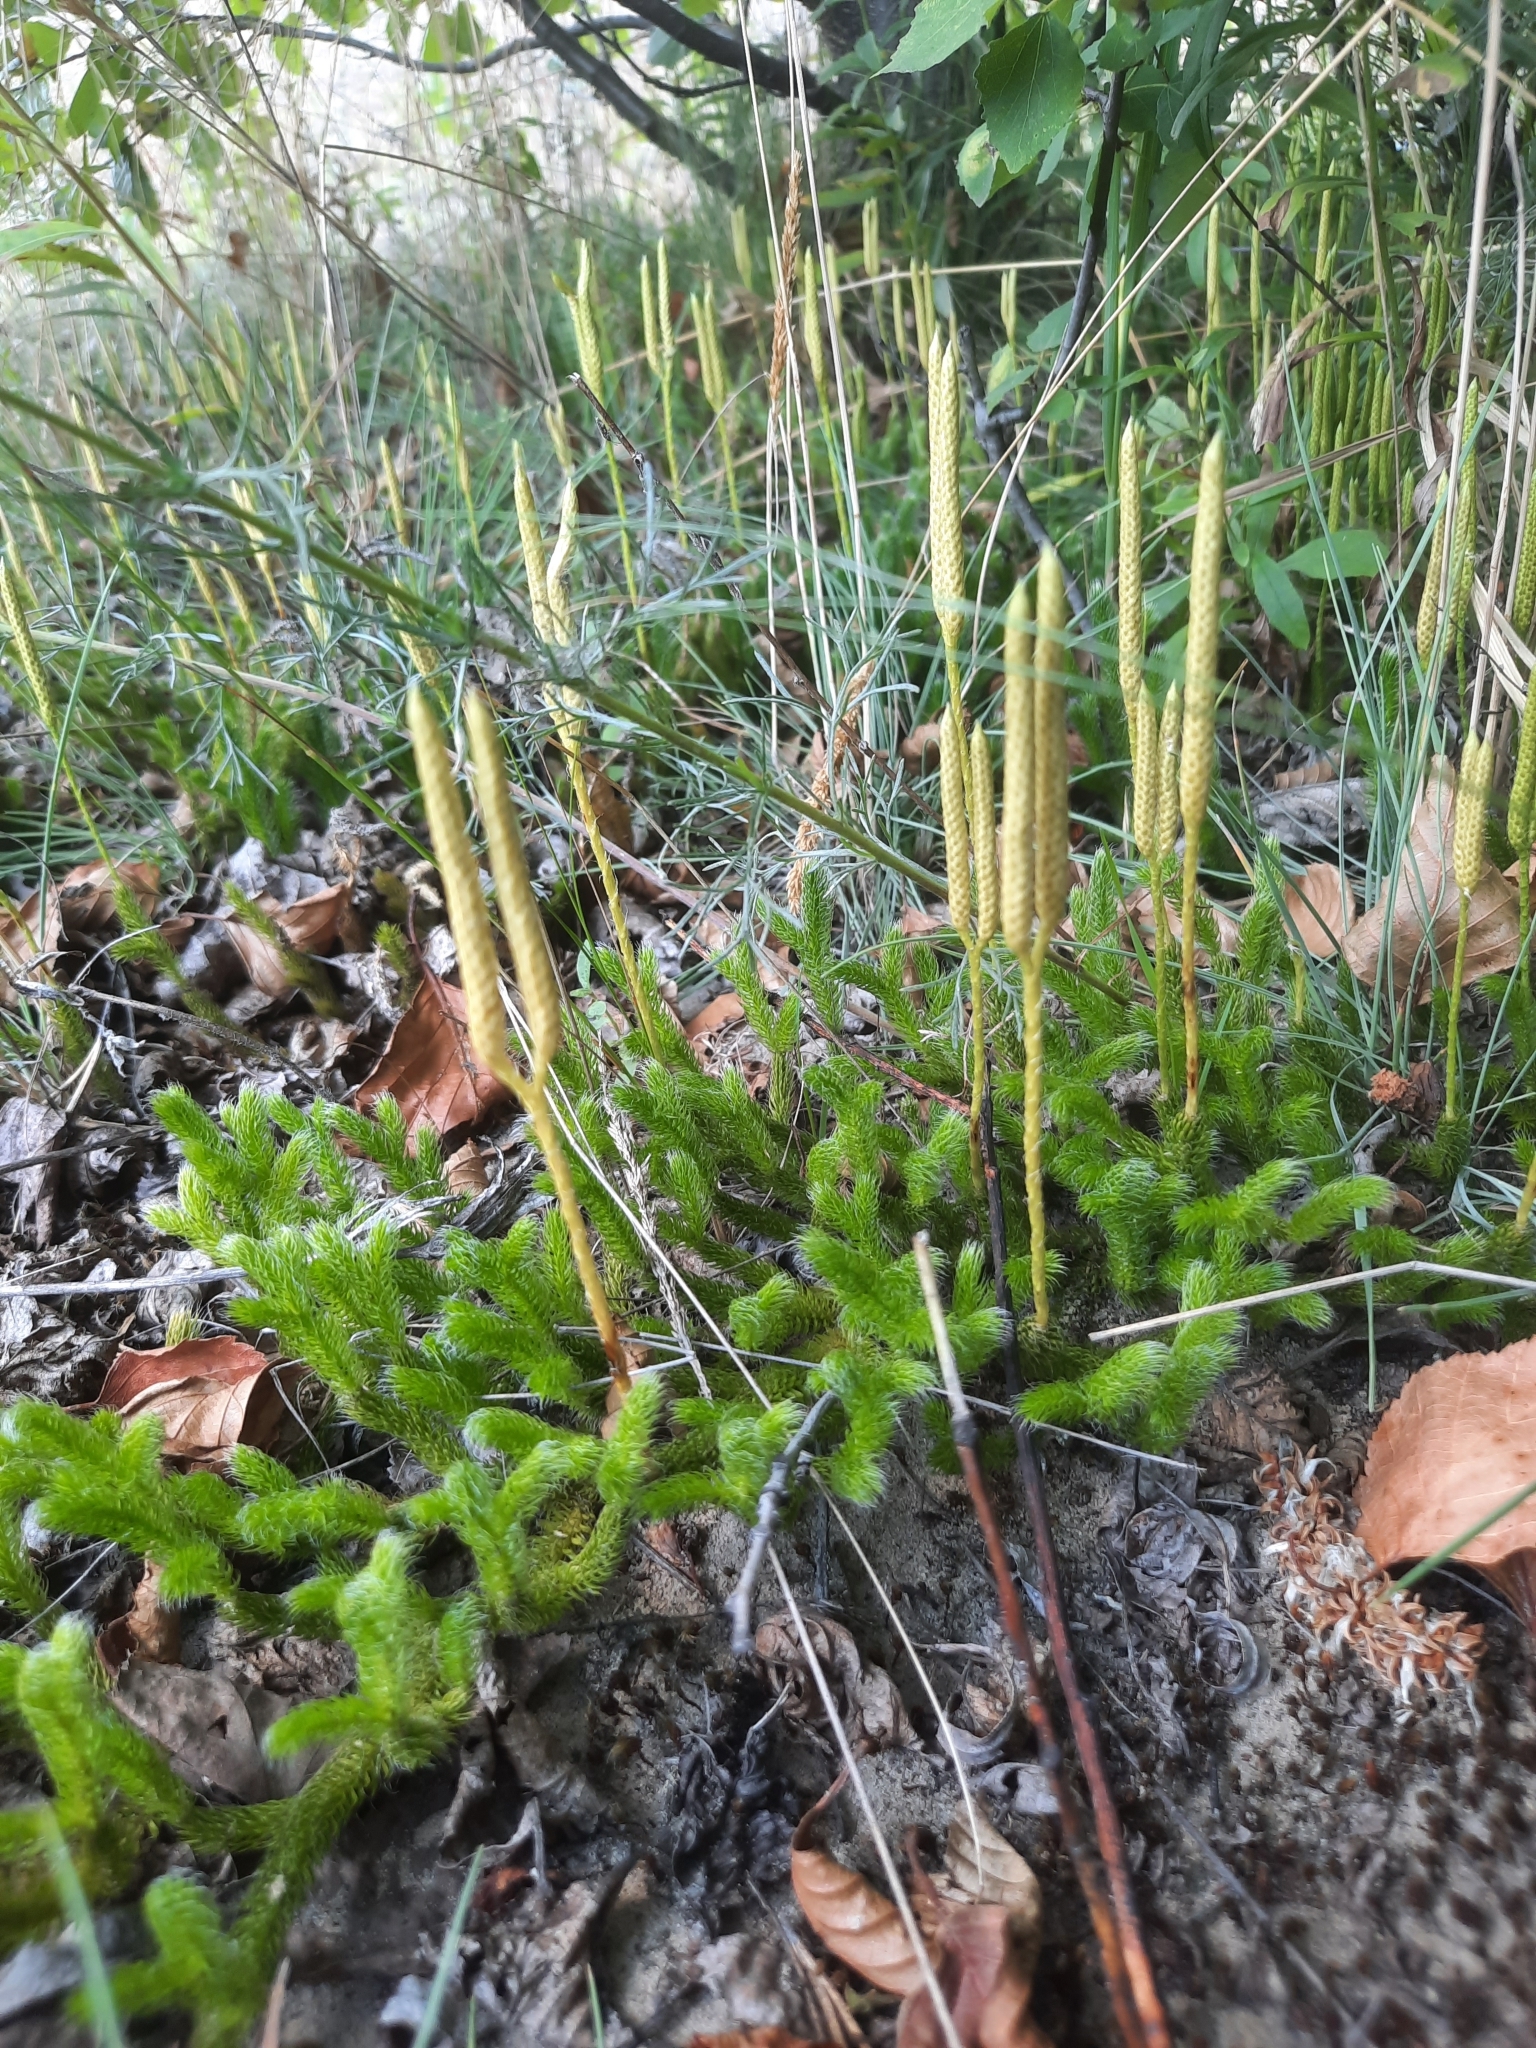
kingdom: Plantae
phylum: Tracheophyta
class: Lycopodiopsida
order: Lycopodiales
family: Lycopodiaceae
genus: Lycopodium
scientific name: Lycopodium clavatum
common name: Stag's-horn clubmoss
